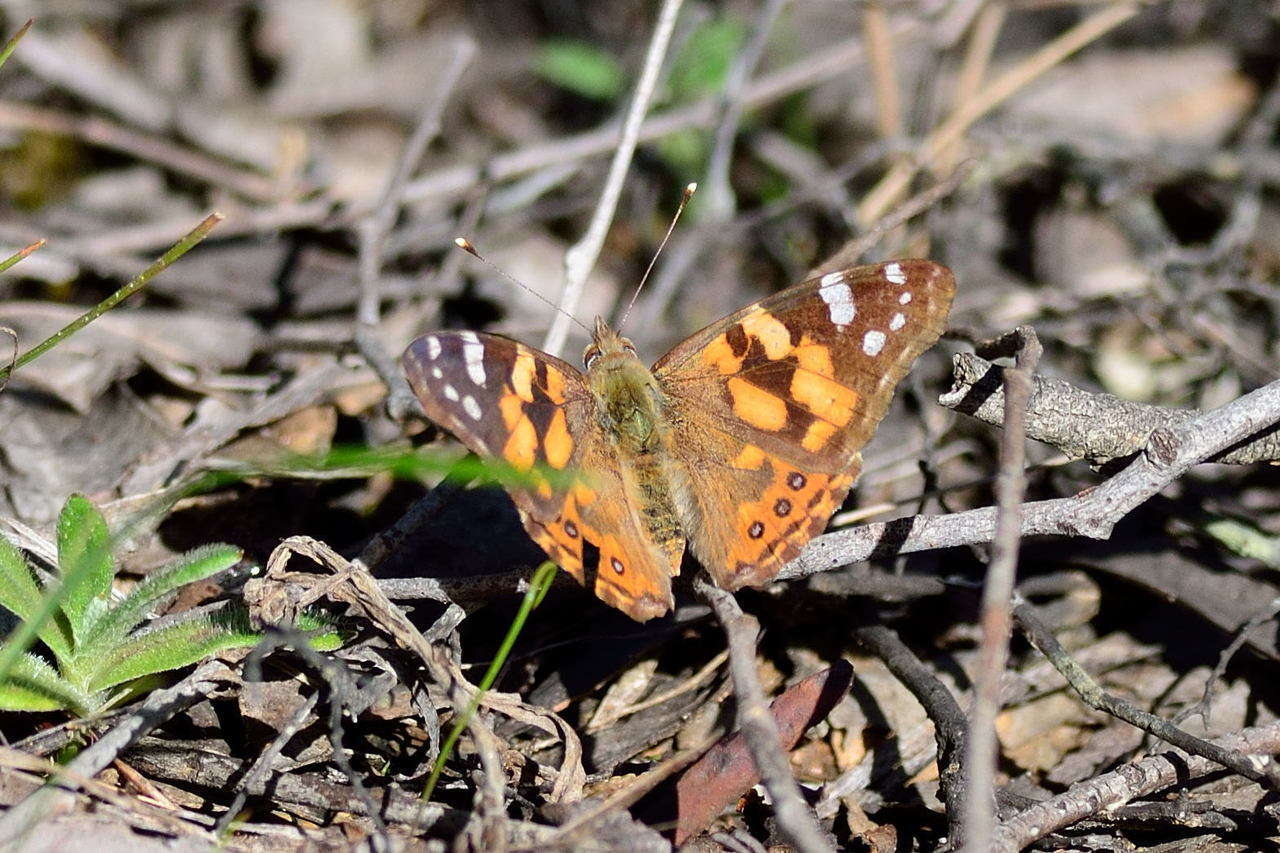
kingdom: Animalia
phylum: Arthropoda
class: Insecta
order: Lepidoptera
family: Nymphalidae
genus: Vanessa
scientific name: Vanessa kershawi
